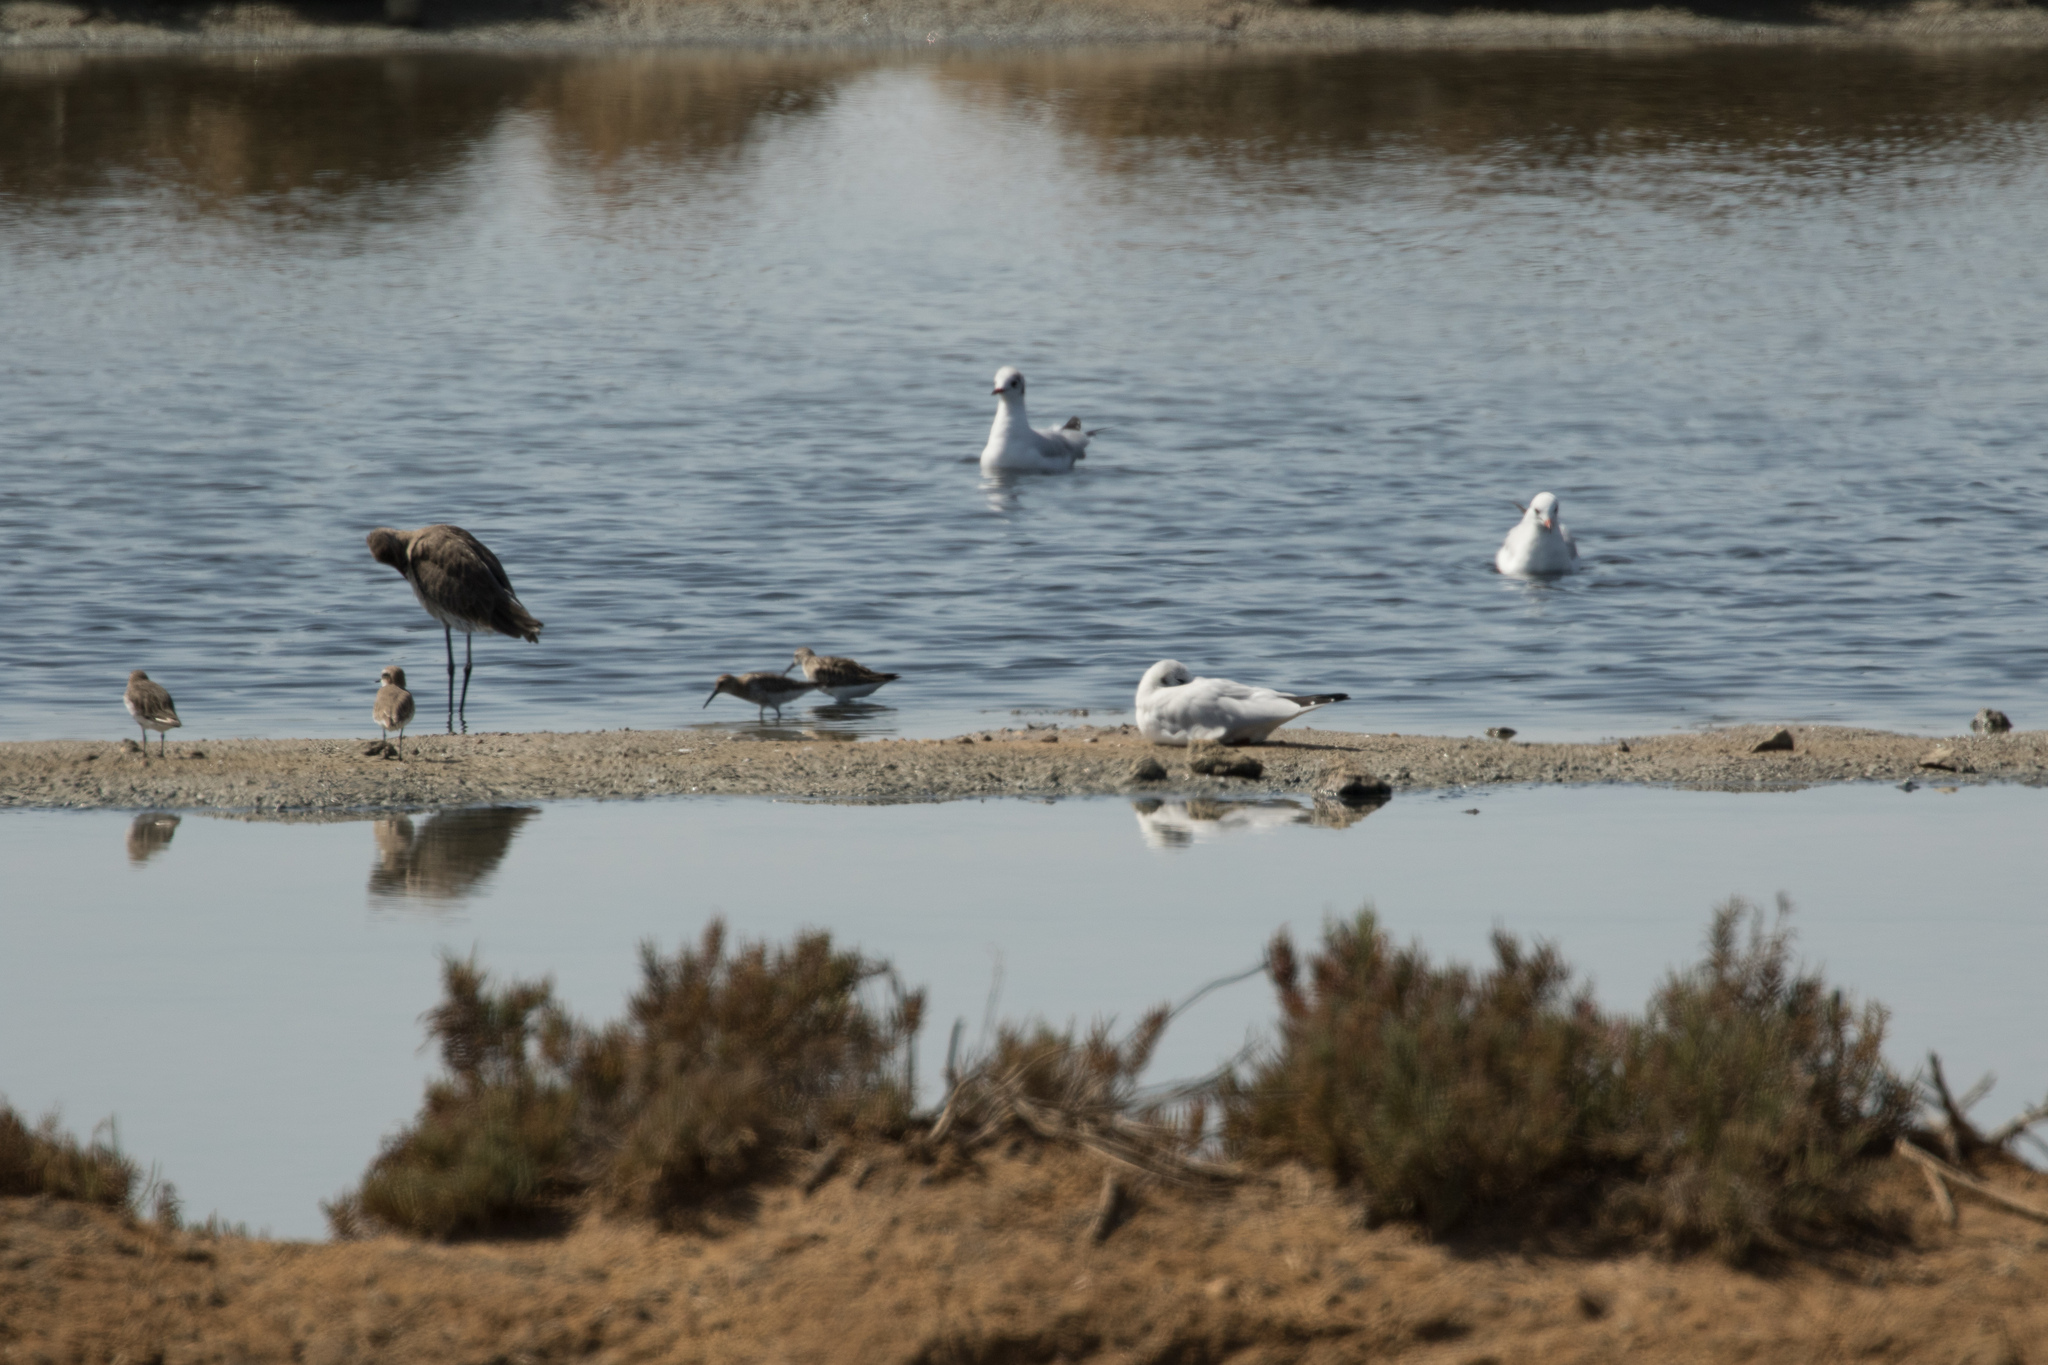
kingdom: Animalia
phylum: Chordata
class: Aves
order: Charadriiformes
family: Charadriidae
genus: Charadrius
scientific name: Charadrius alexandrinus
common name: Kentish plover
